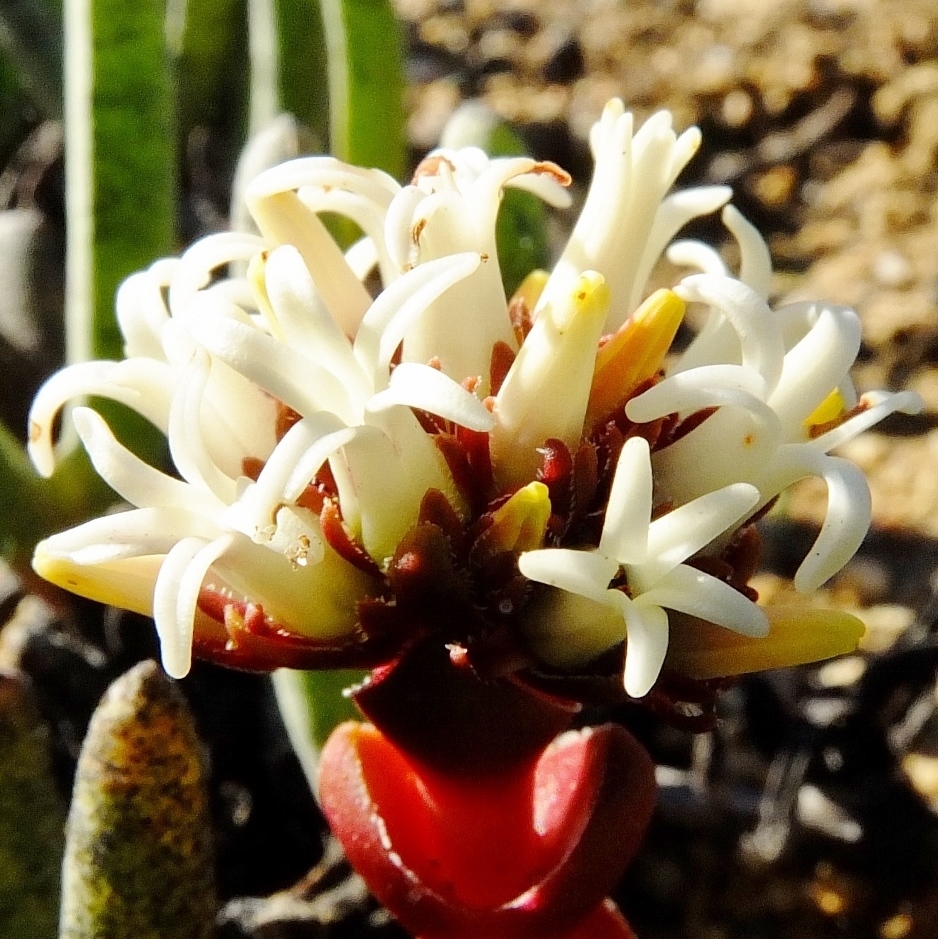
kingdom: Plantae
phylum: Tracheophyta
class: Magnoliopsida
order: Saxifragales
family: Crassulaceae
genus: Crassula
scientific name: Crassula columnaris
